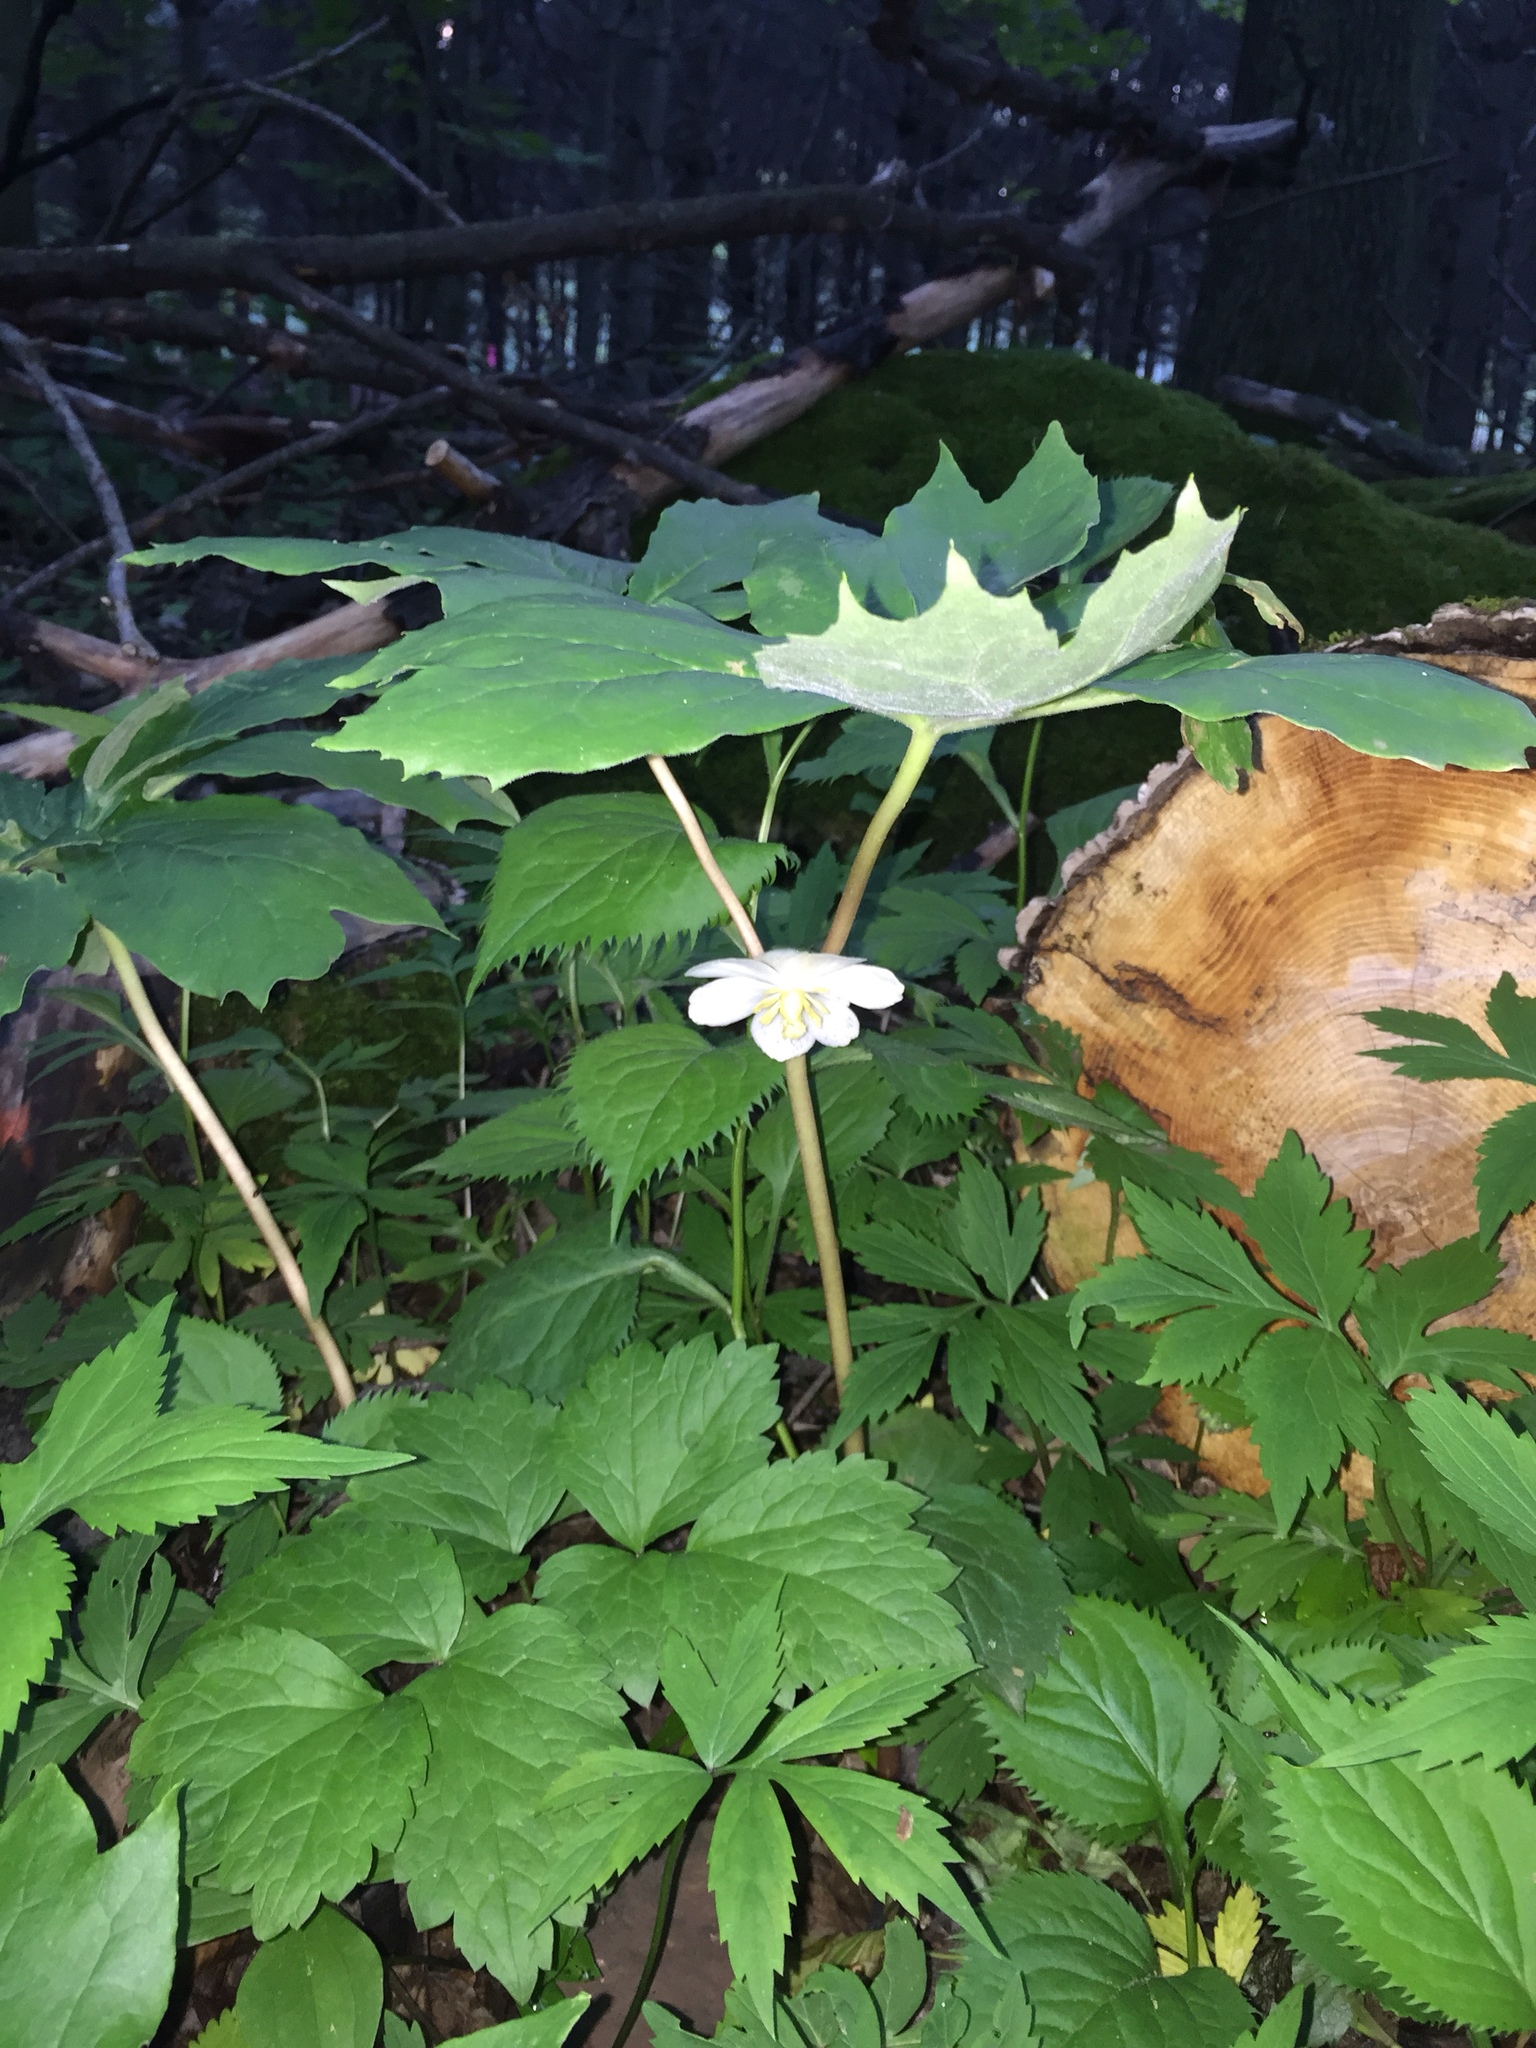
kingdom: Plantae
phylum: Tracheophyta
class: Magnoliopsida
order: Ranunculales
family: Berberidaceae
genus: Podophyllum
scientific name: Podophyllum peltatum
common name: Wild mandrake
